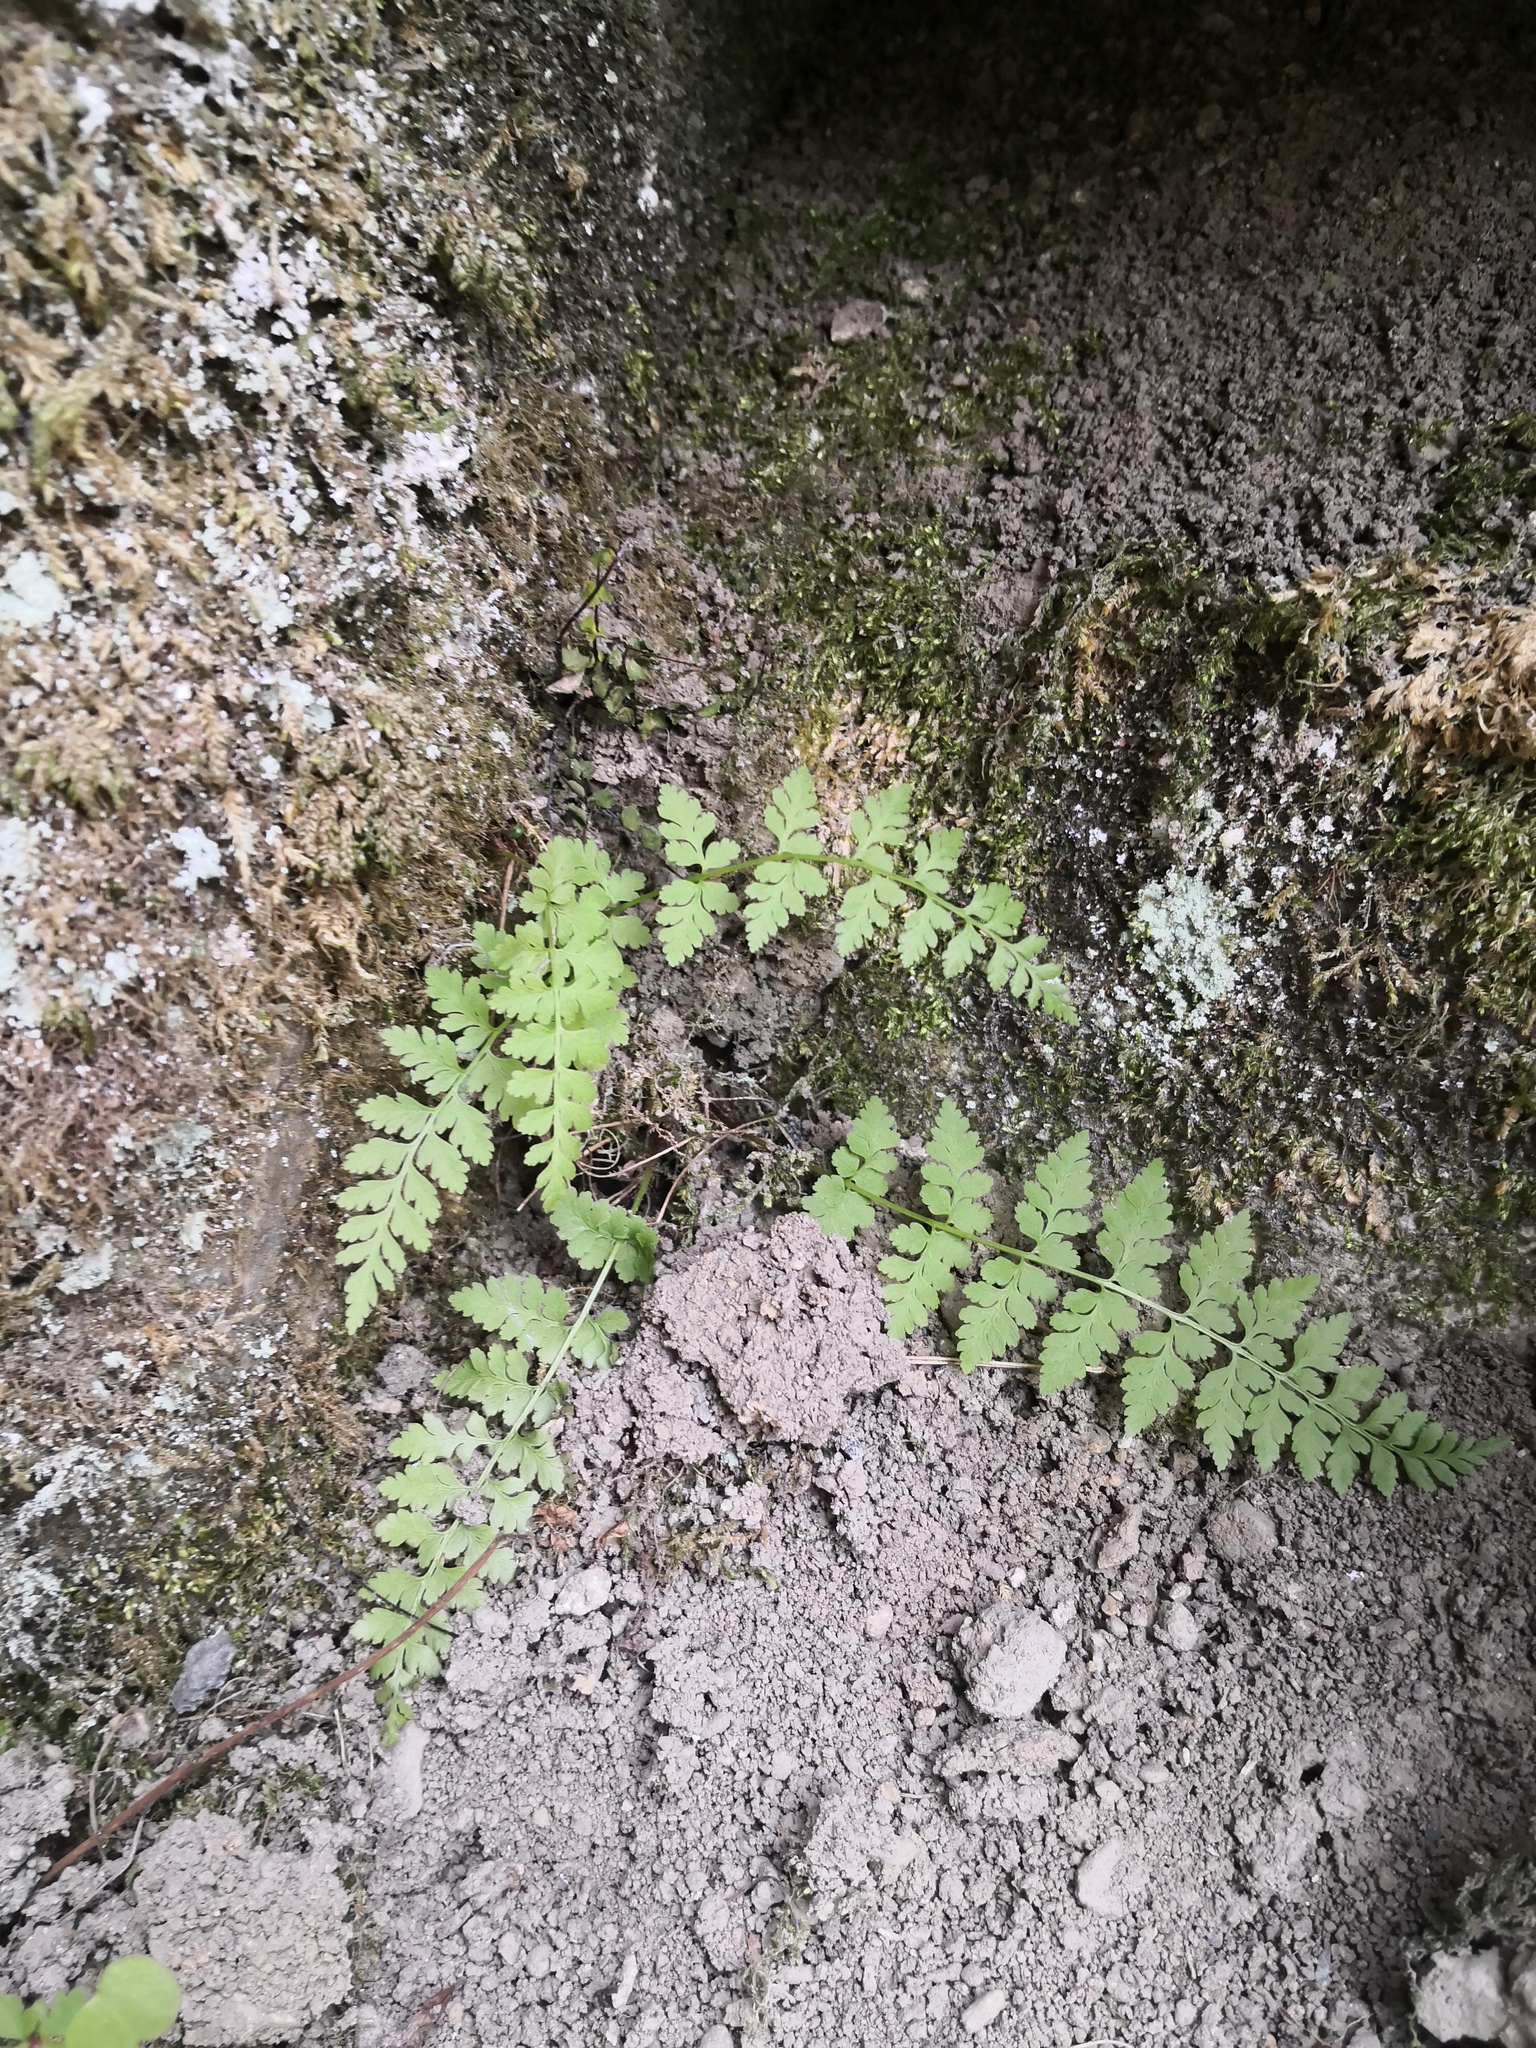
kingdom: Plantae
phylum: Tracheophyta
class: Polypodiopsida
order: Polypodiales
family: Cystopteridaceae
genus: Cystopteris
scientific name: Cystopteris fragilis
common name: Brittle bladder fern
